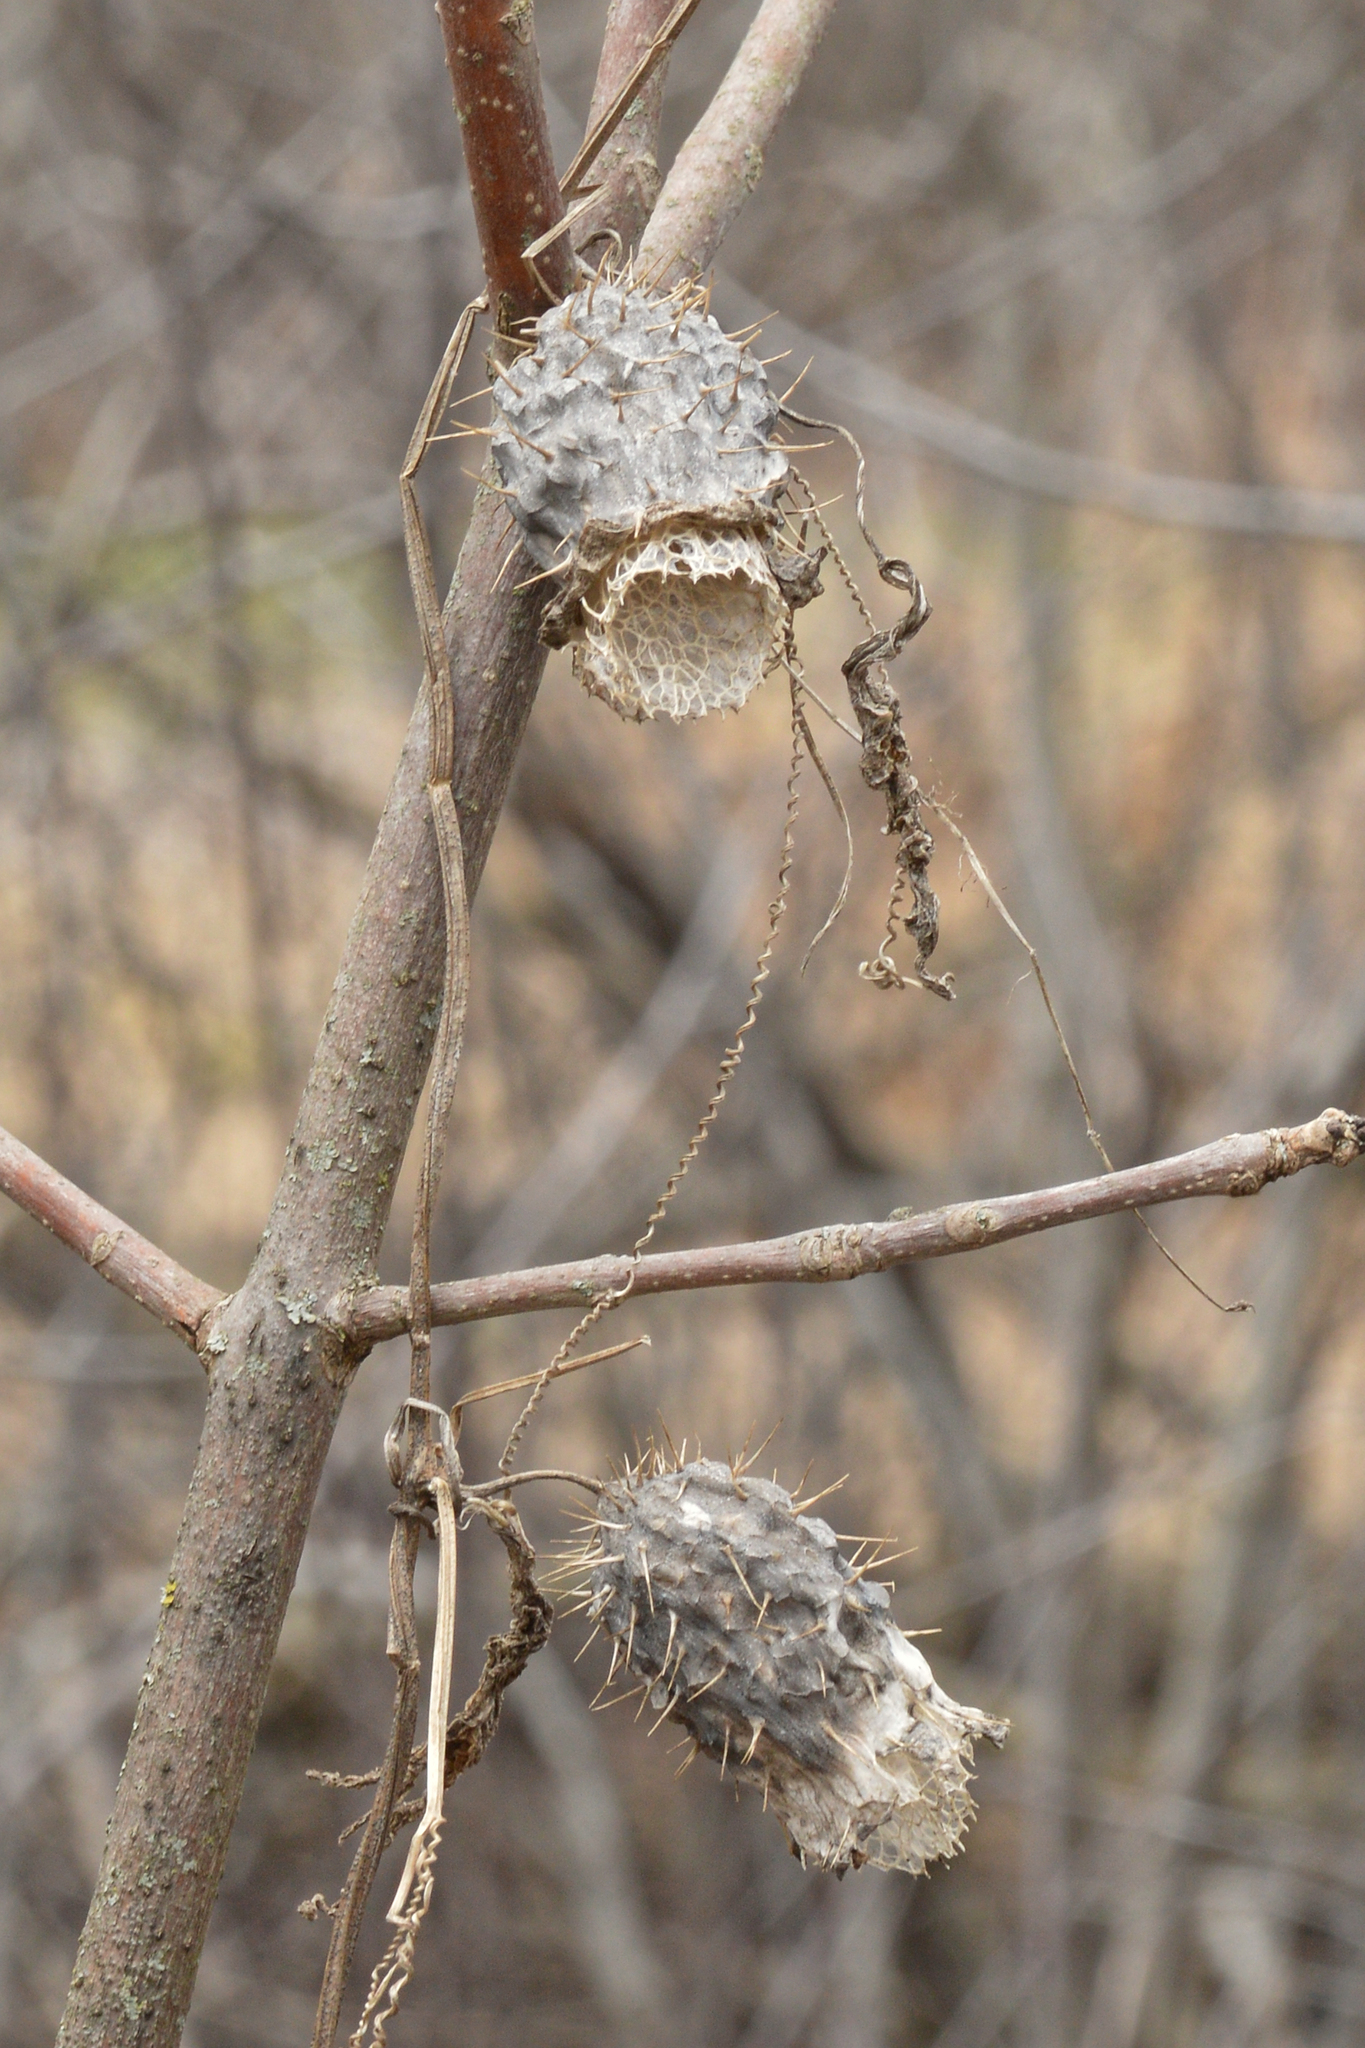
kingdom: Plantae
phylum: Tracheophyta
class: Magnoliopsida
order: Cucurbitales
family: Cucurbitaceae
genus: Echinocystis
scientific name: Echinocystis lobata
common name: Wild cucumber
